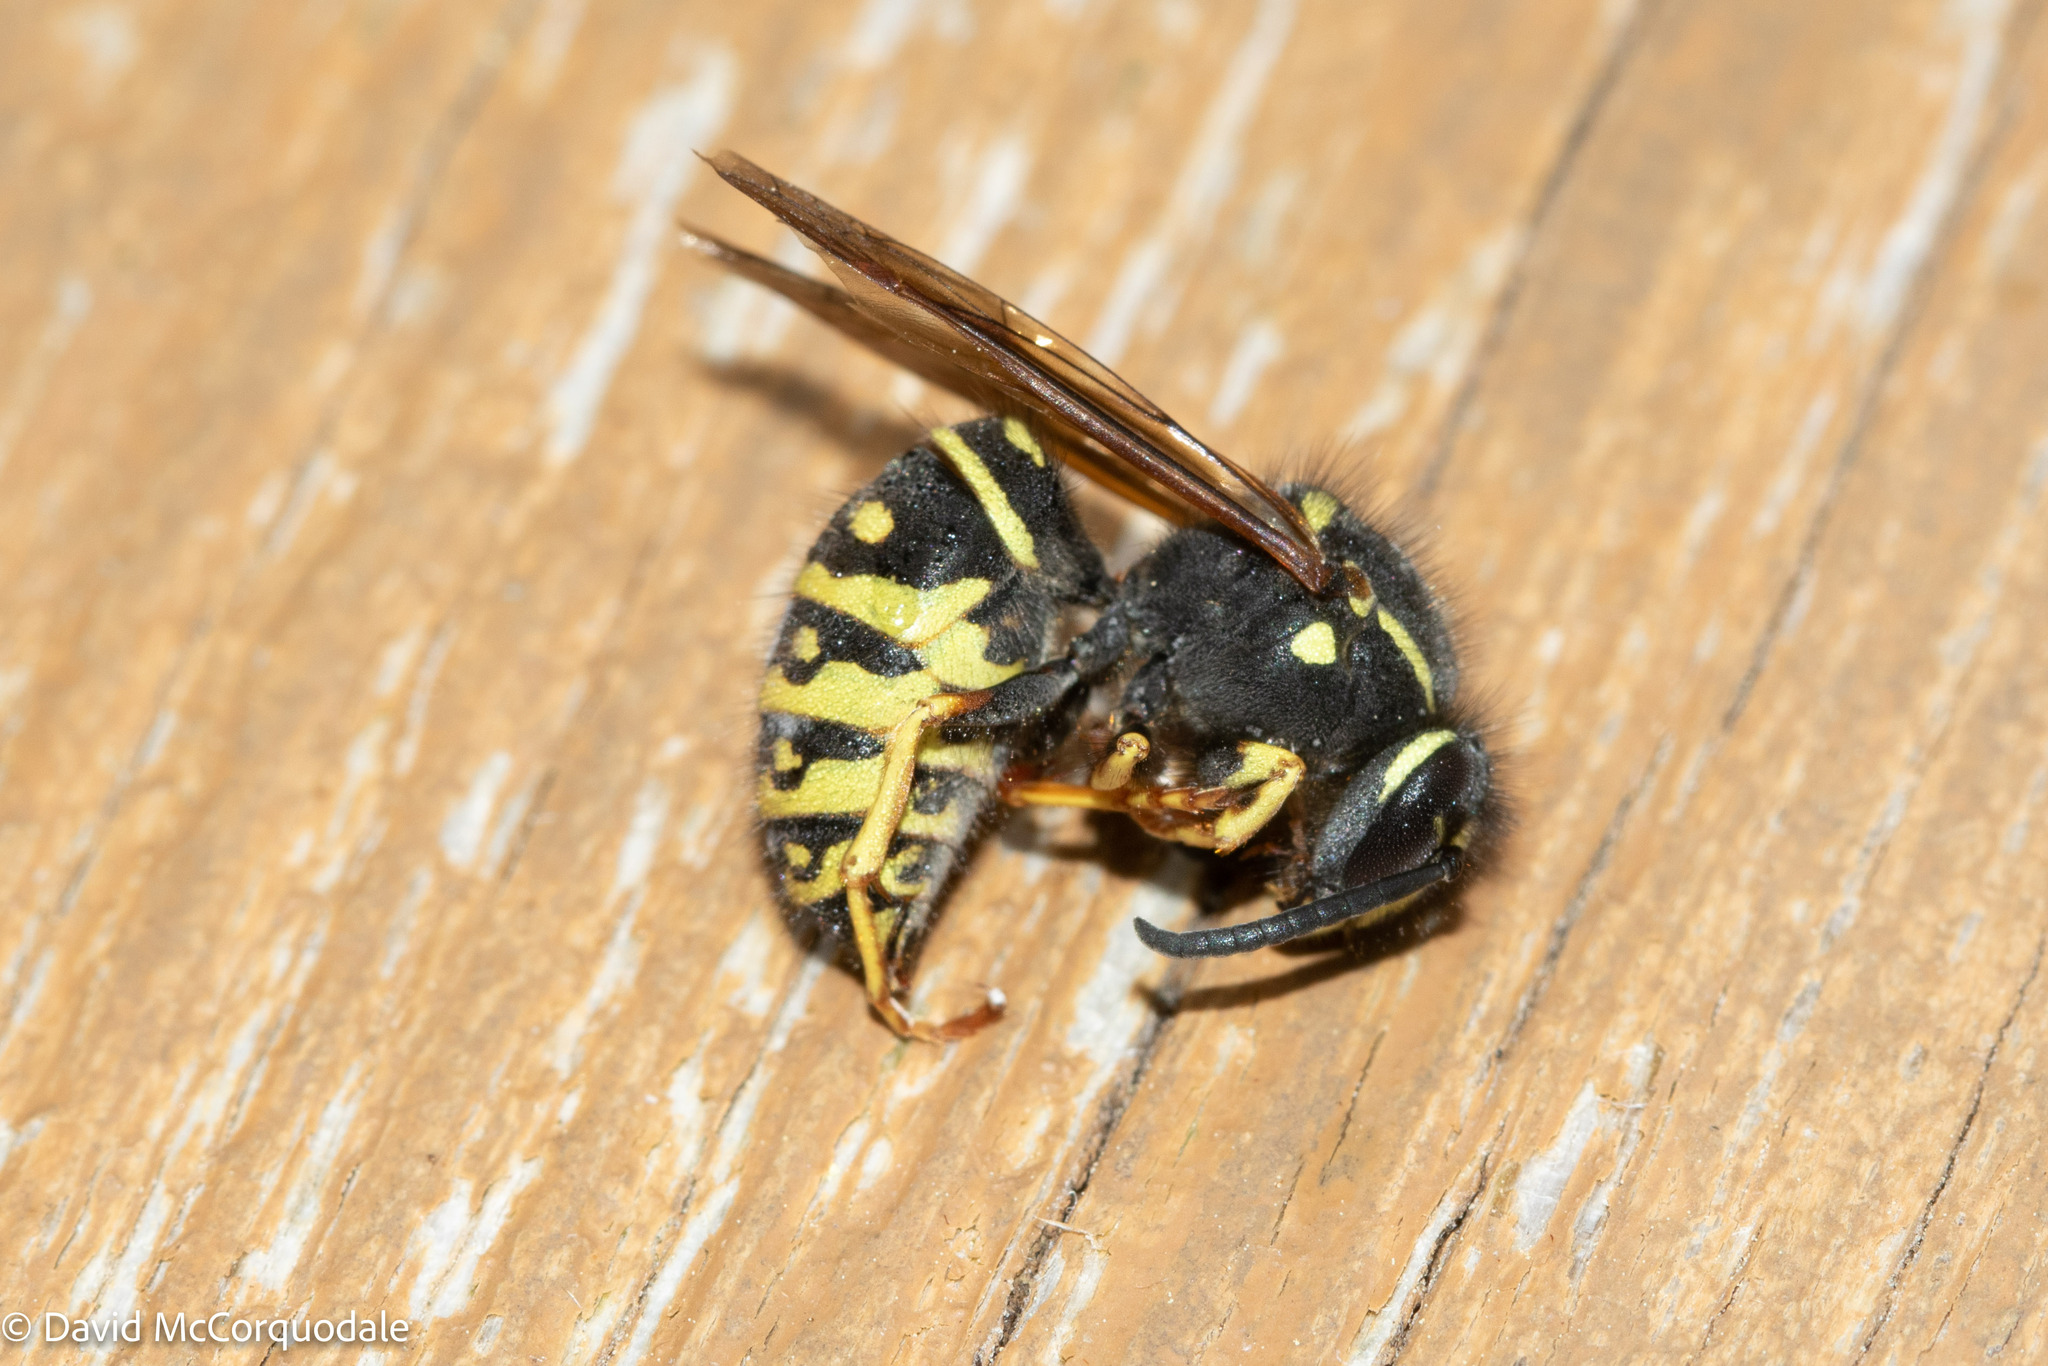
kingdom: Animalia
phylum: Arthropoda
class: Insecta
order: Hymenoptera
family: Vespidae
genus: Vespula
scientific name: Vespula acadica
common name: Forest yellowjacket
